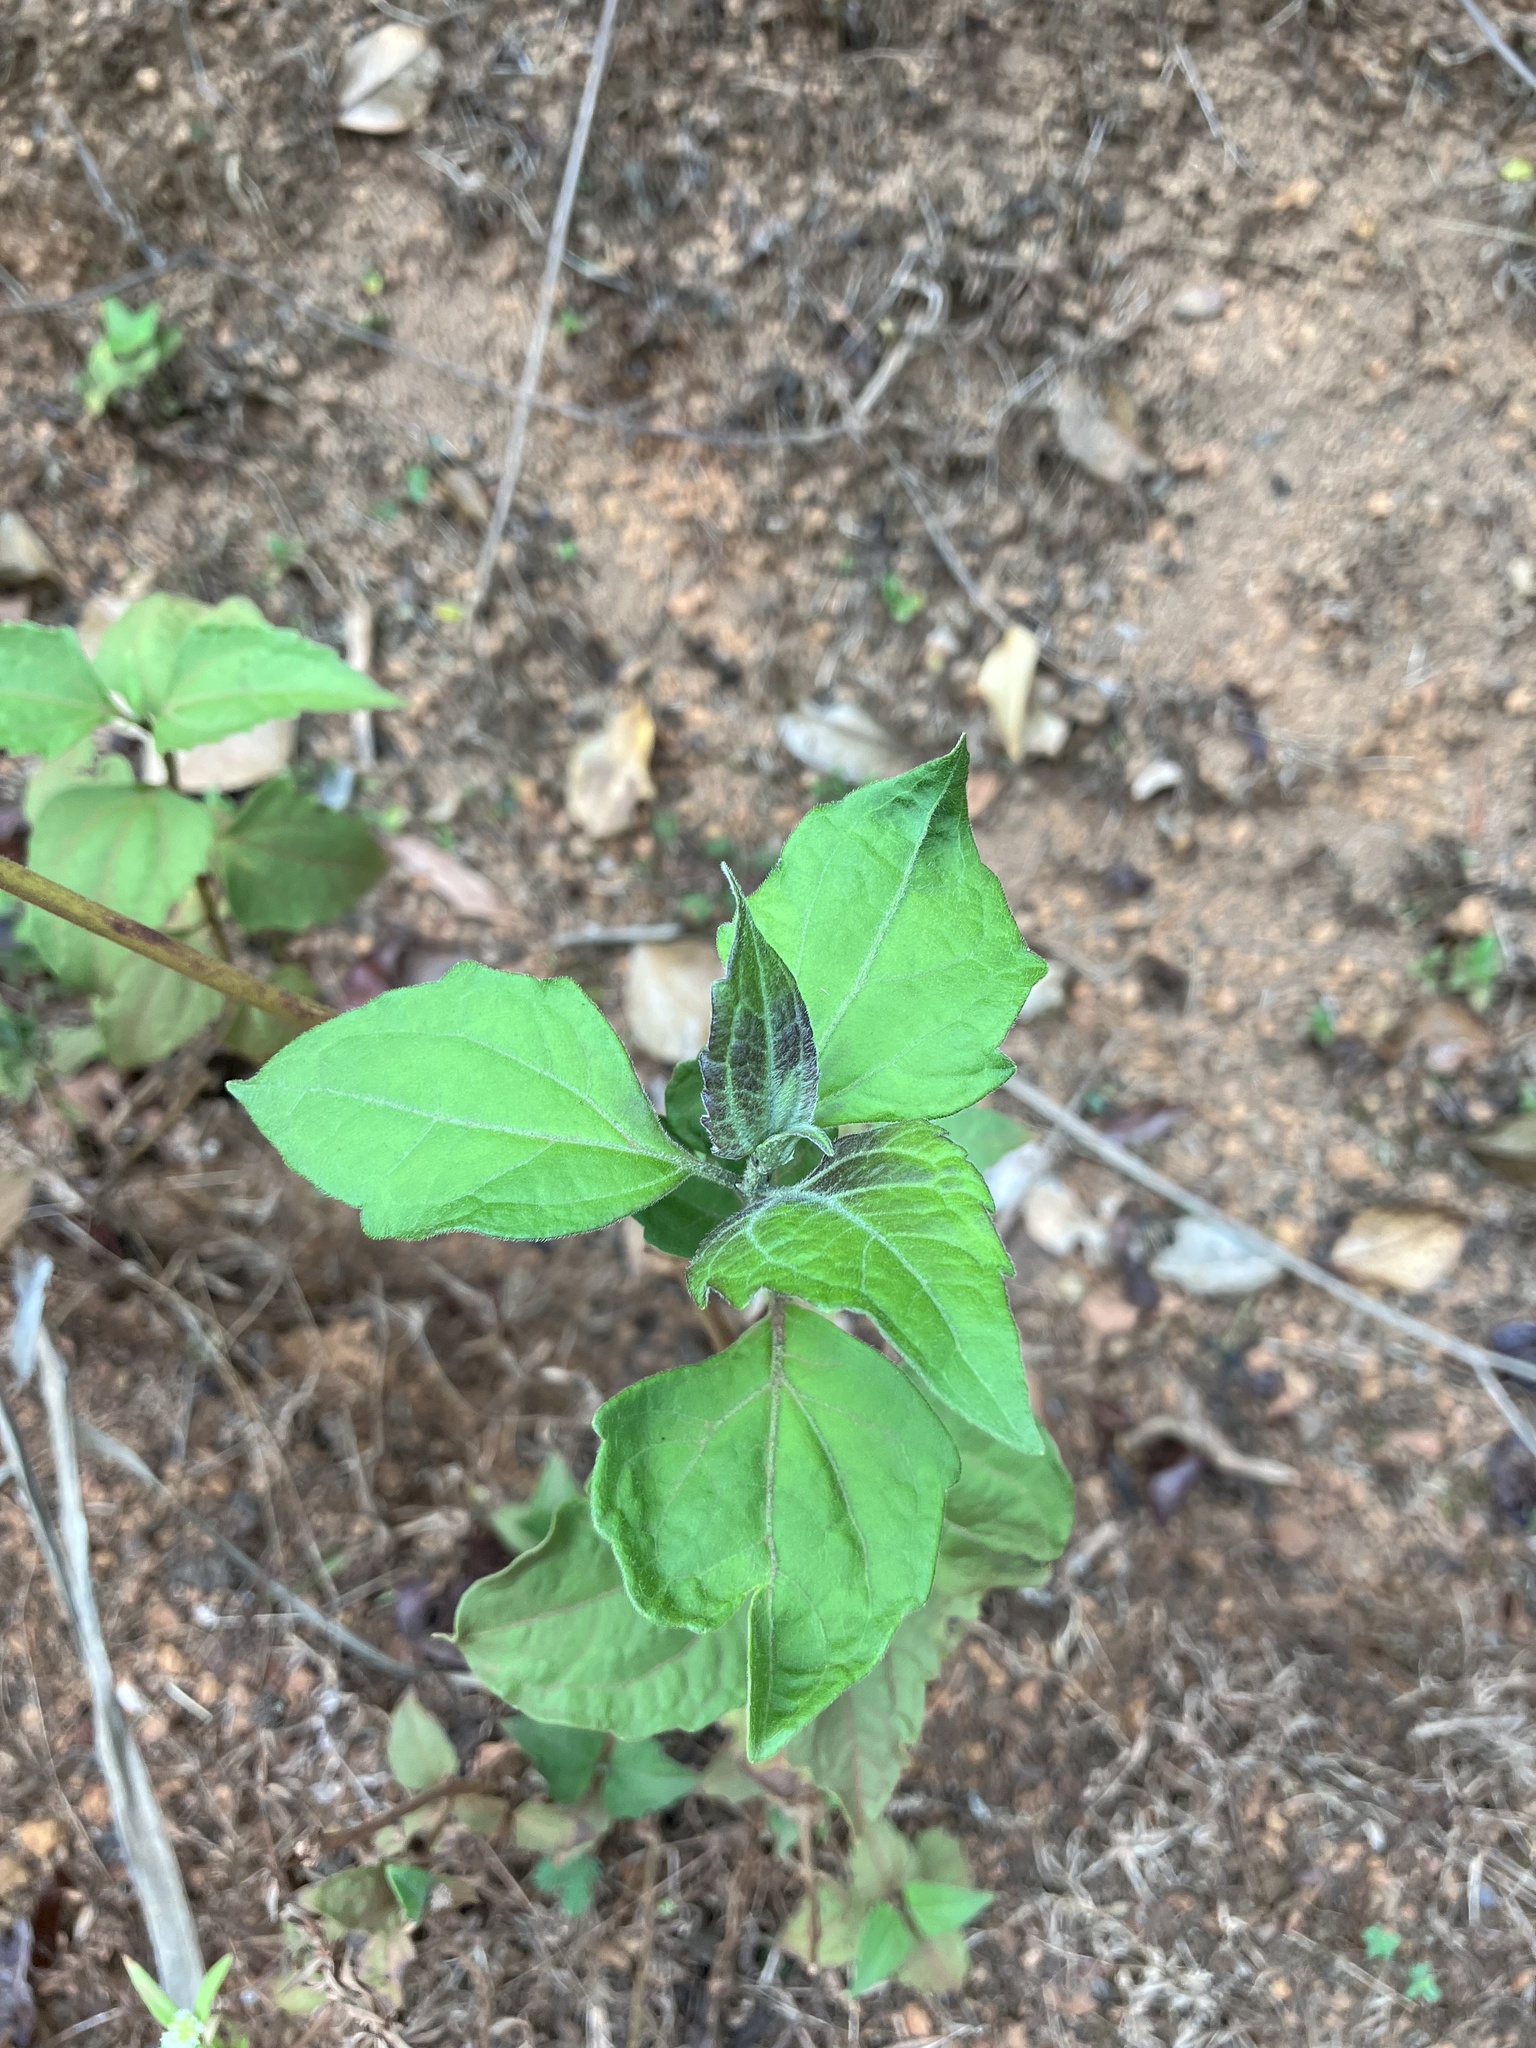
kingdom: Plantae
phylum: Tracheophyta
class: Magnoliopsida
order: Asterales
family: Asteraceae
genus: Chromolaena
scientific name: Chromolaena odorata
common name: Siamweed
